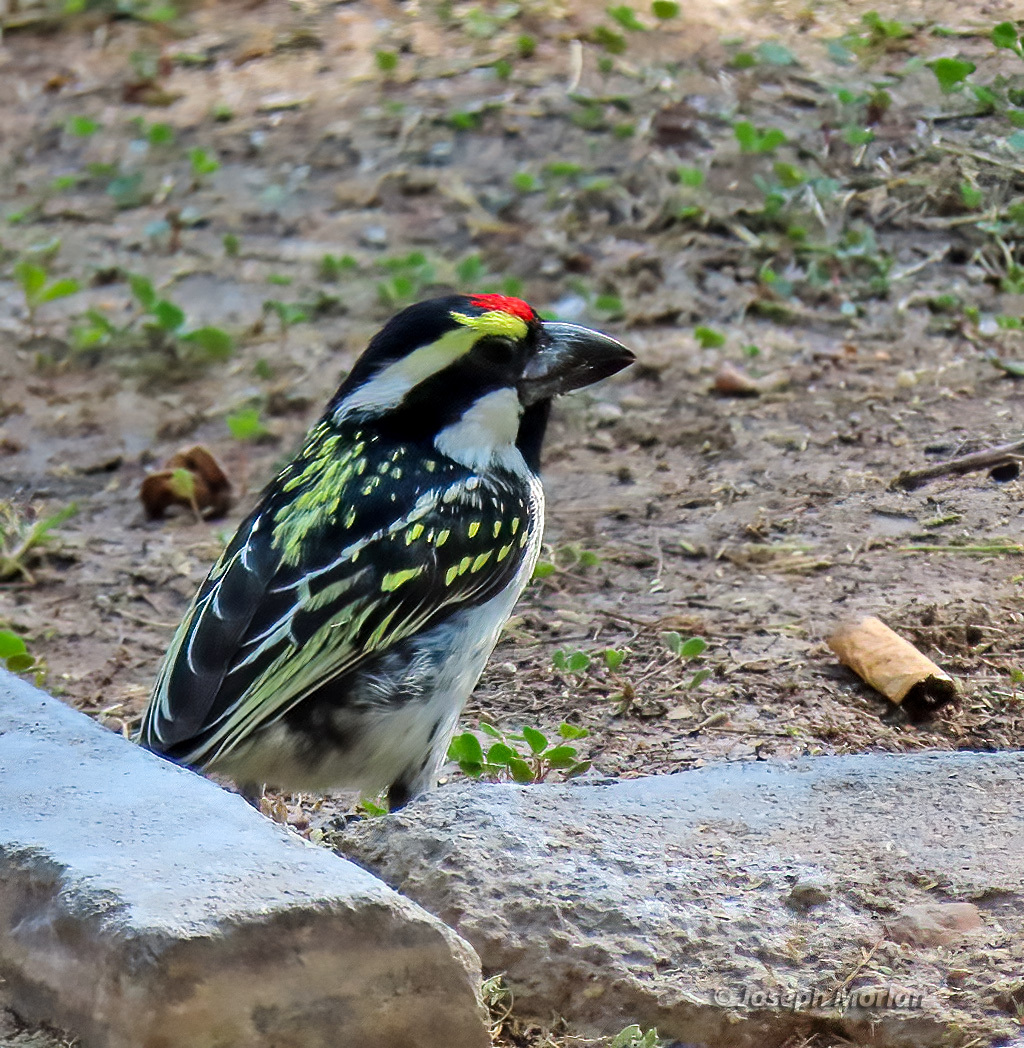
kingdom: Animalia
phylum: Chordata
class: Aves
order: Piciformes
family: Lybiidae
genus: Tricholaema
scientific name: Tricholaema leucomelas
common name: Acacia pied barbet
